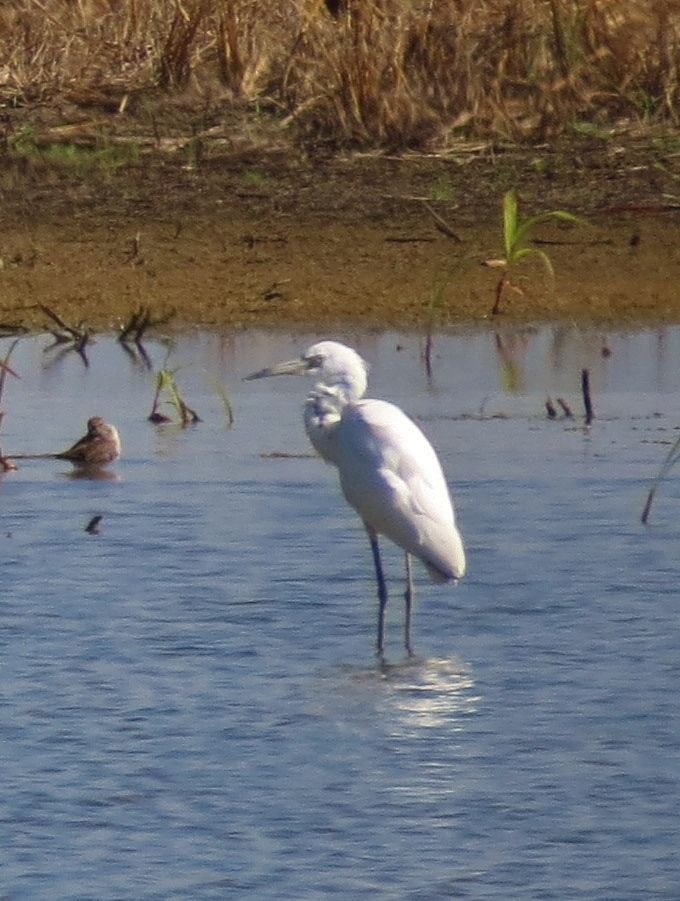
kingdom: Animalia
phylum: Chordata
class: Aves
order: Pelecaniformes
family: Ardeidae
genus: Egretta
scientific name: Egretta caerulea
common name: Little blue heron
